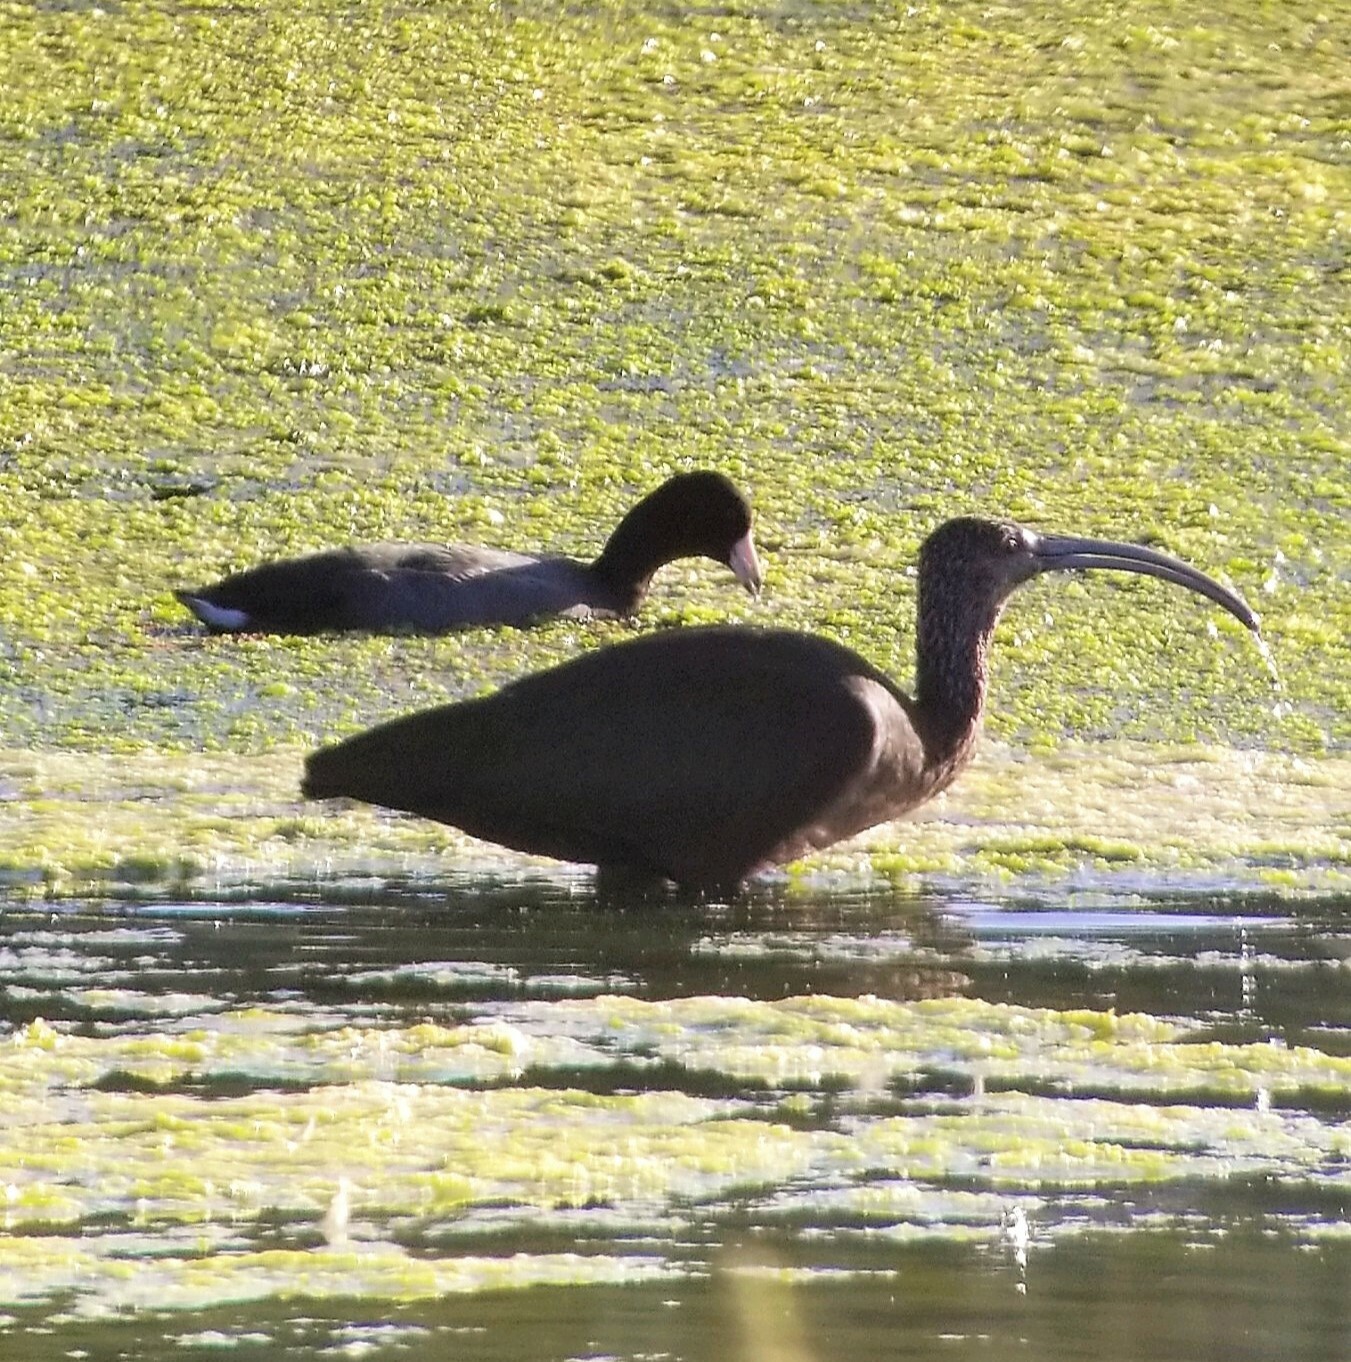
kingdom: Animalia
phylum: Chordata
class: Aves
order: Gruiformes
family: Rallidae
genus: Fulica
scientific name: Fulica americana
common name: American coot
